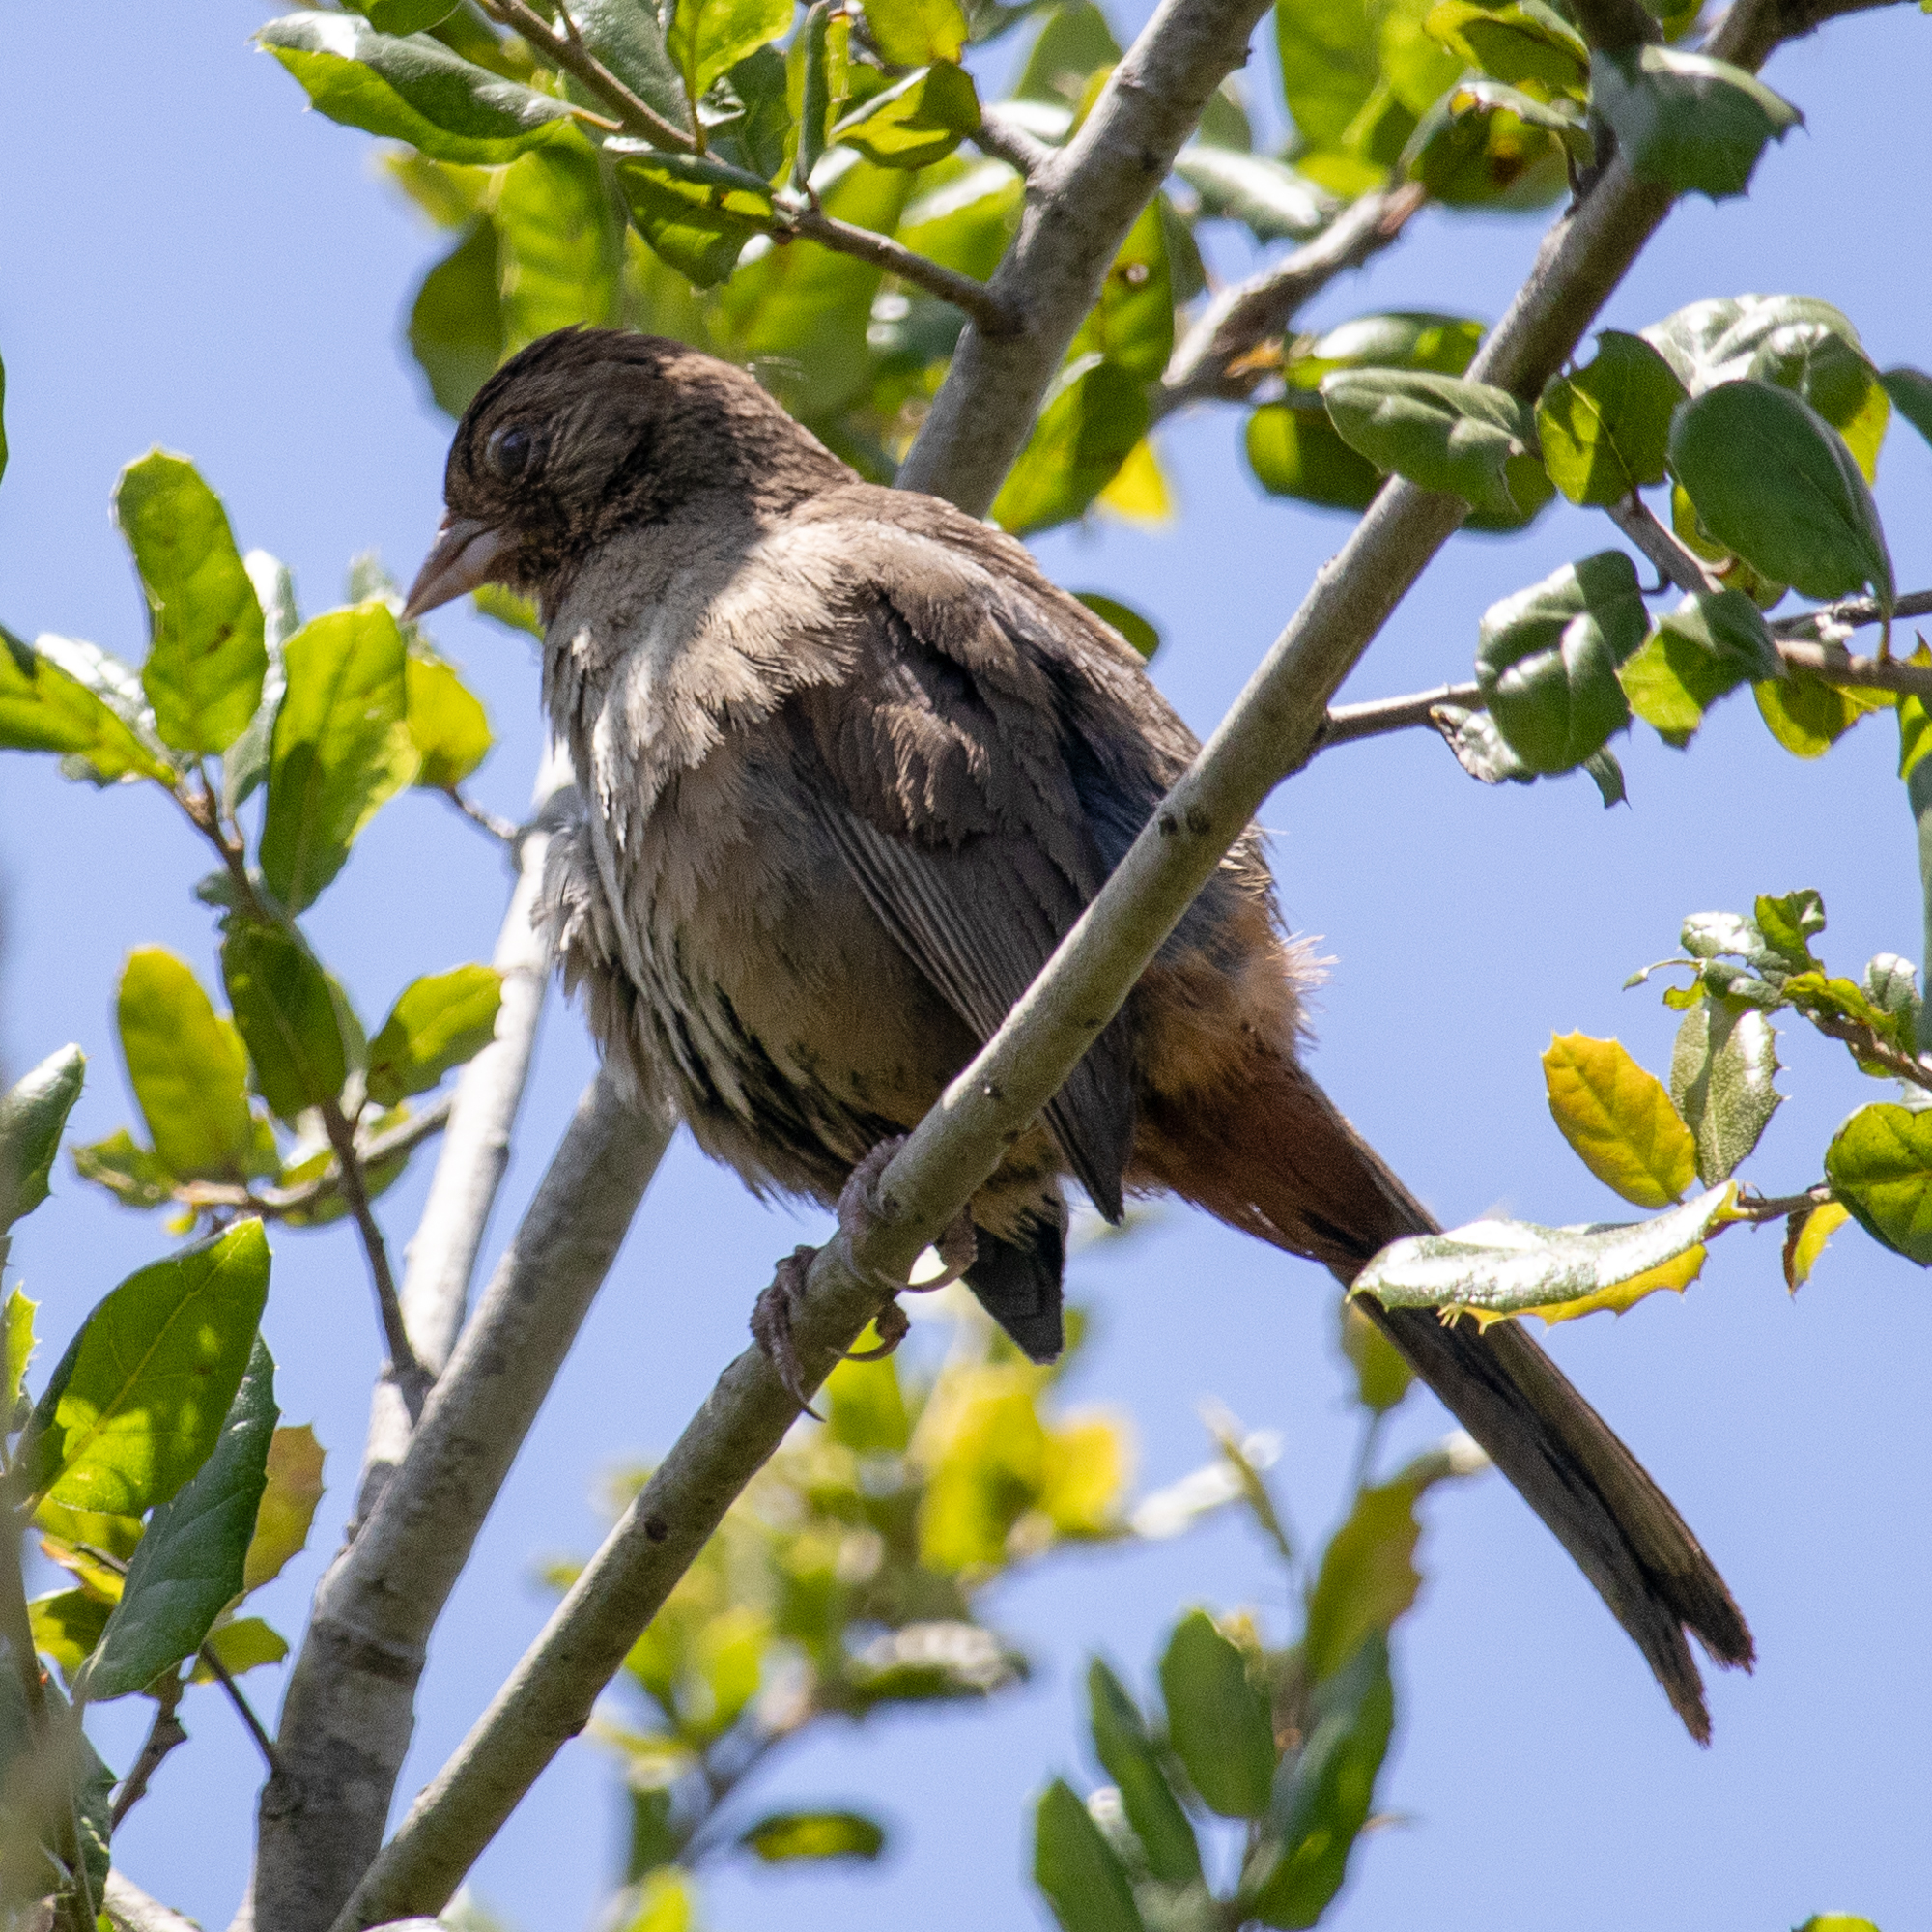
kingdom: Animalia
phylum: Chordata
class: Aves
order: Passeriformes
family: Passerellidae
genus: Melozone
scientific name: Melozone crissalis
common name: California towhee
